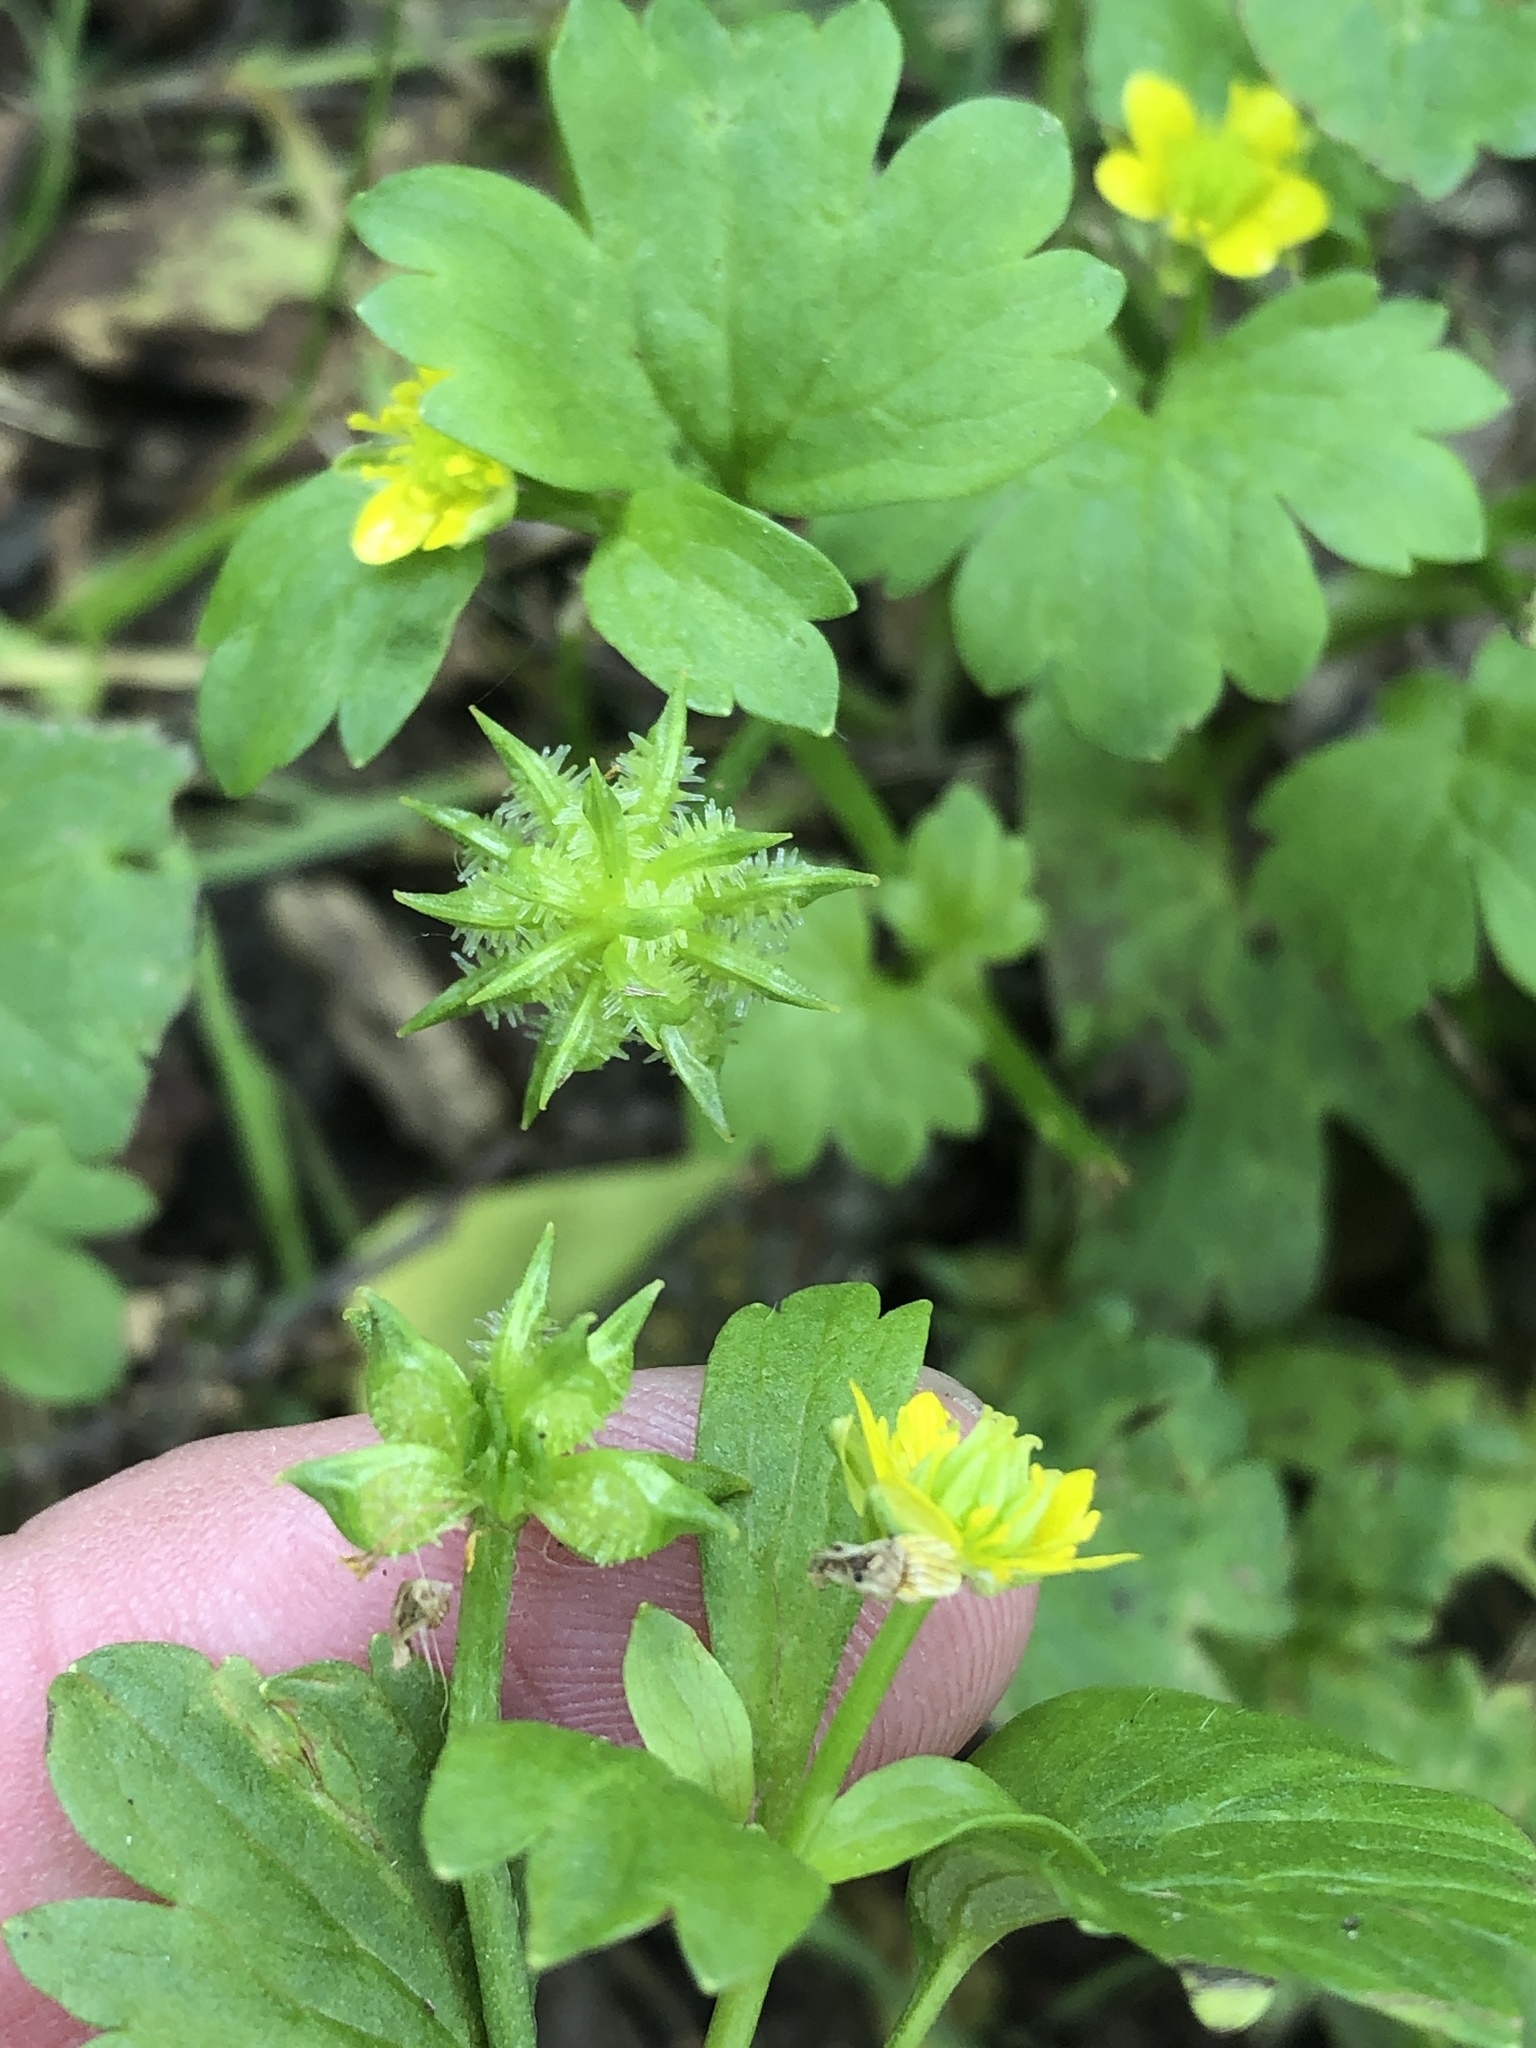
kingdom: Plantae
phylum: Tracheophyta
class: Magnoliopsida
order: Ranunculales
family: Ranunculaceae
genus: Ranunculus
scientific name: Ranunculus muricatus
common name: Rough-fruited buttercup
